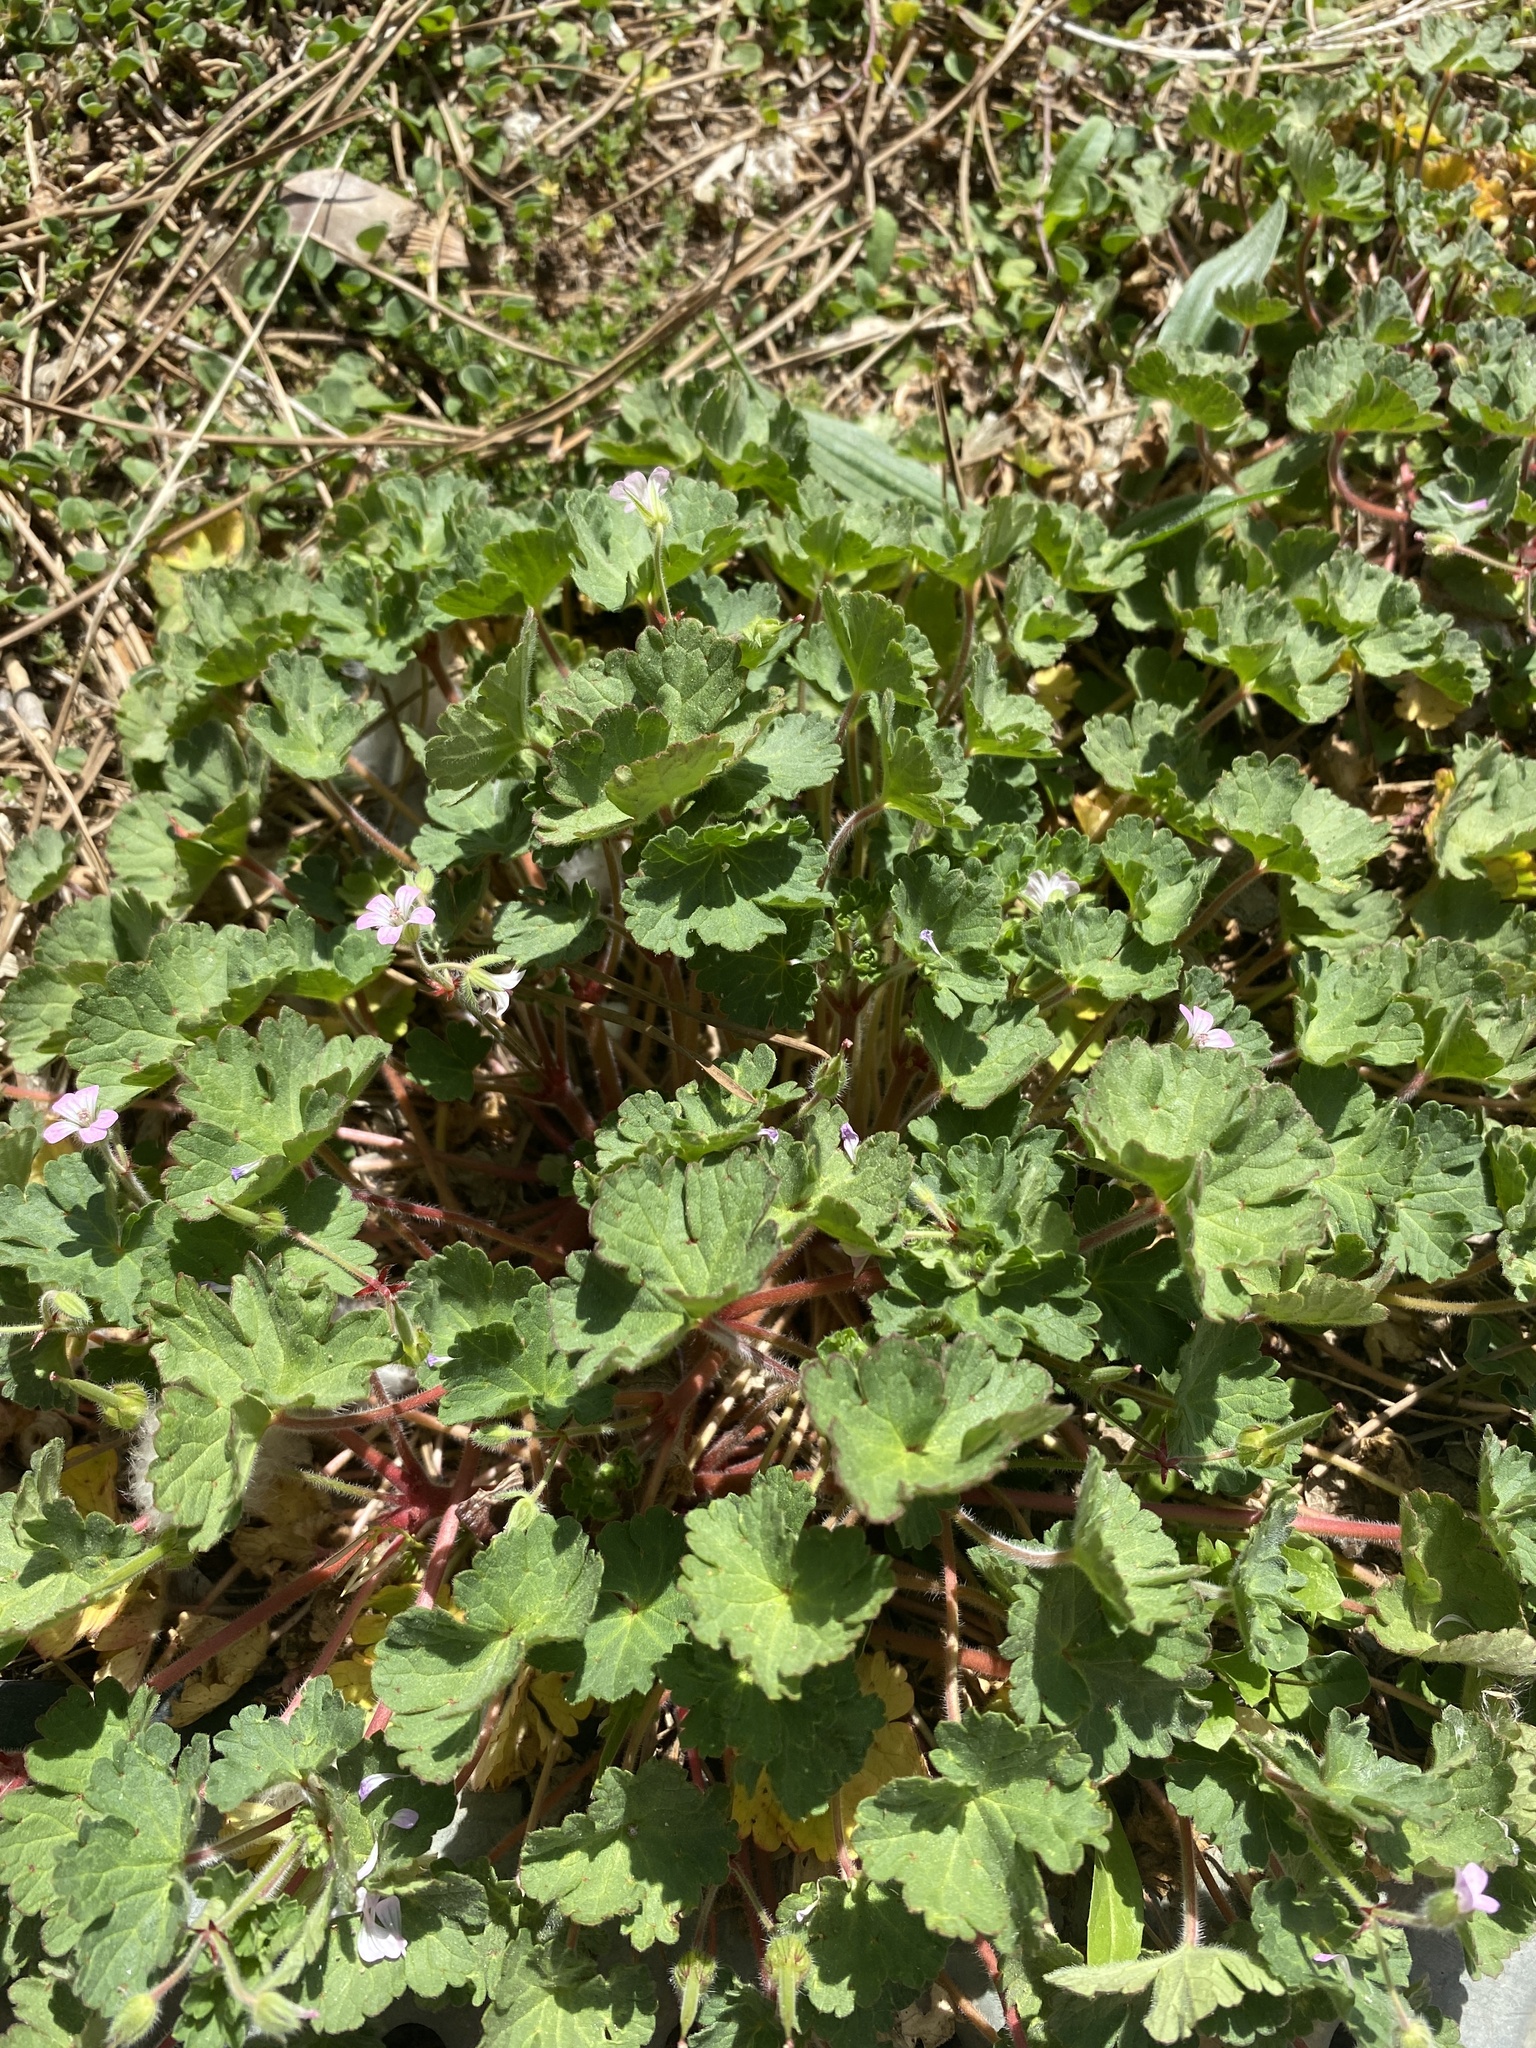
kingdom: Plantae
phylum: Tracheophyta
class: Magnoliopsida
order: Geraniales
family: Geraniaceae
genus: Geranium
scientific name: Geranium rotundifolium
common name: Round-leaved crane's-bill
